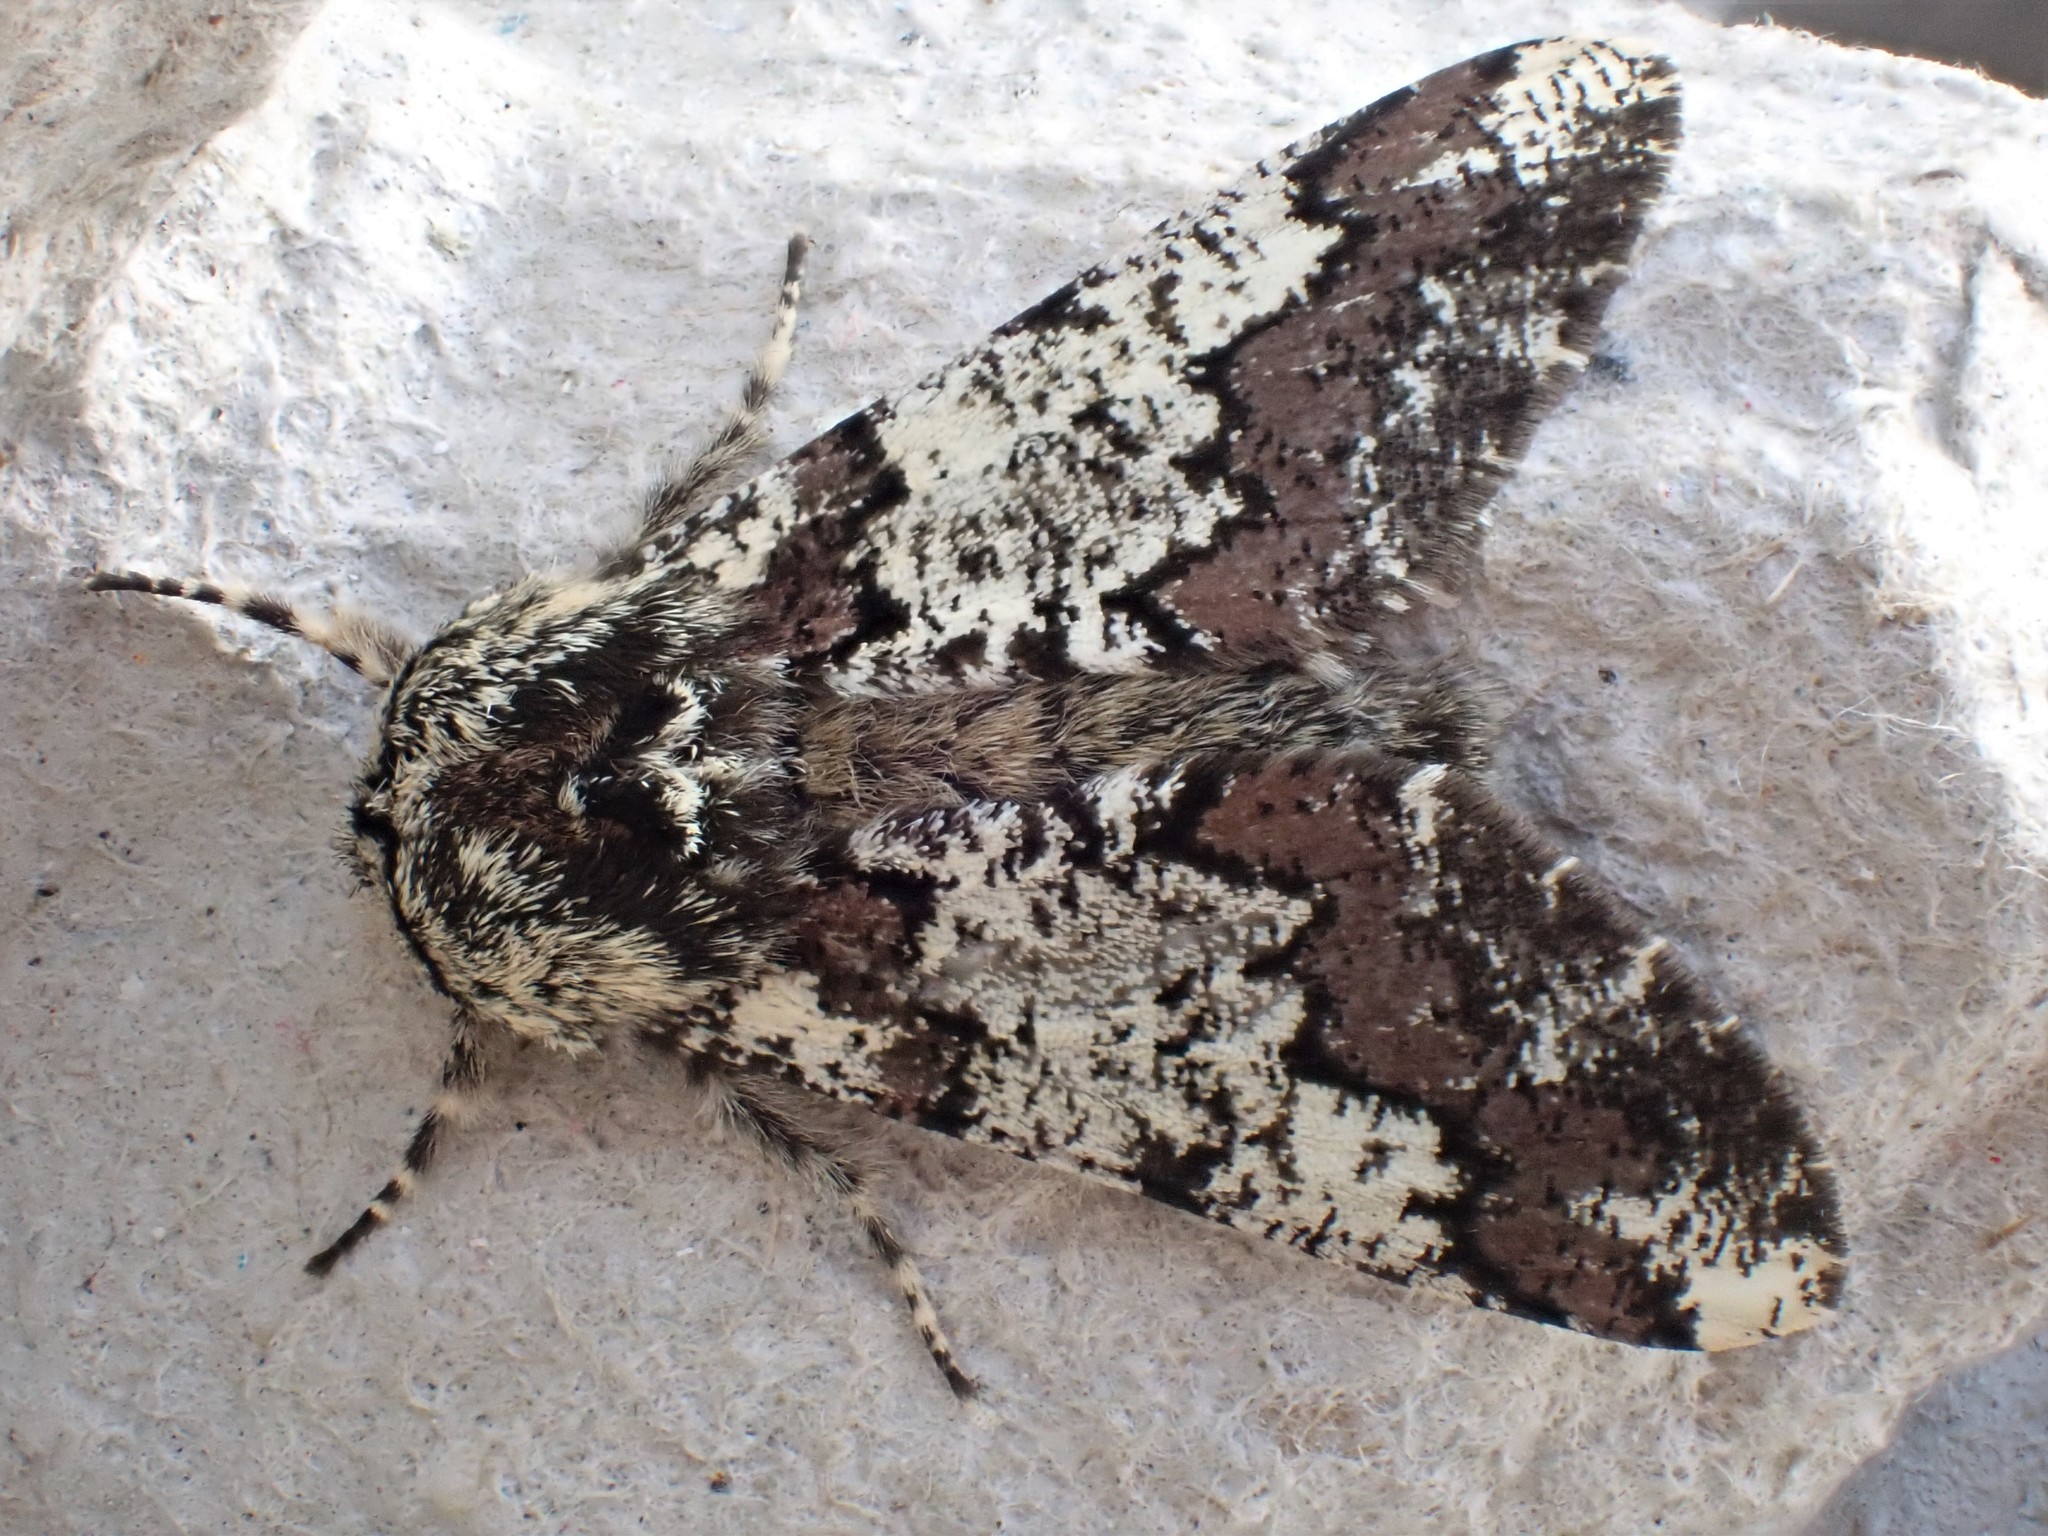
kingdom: Animalia
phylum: Arthropoda
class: Insecta
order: Lepidoptera
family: Geometridae
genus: Biston
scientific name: Biston strataria
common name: Oak beauty
